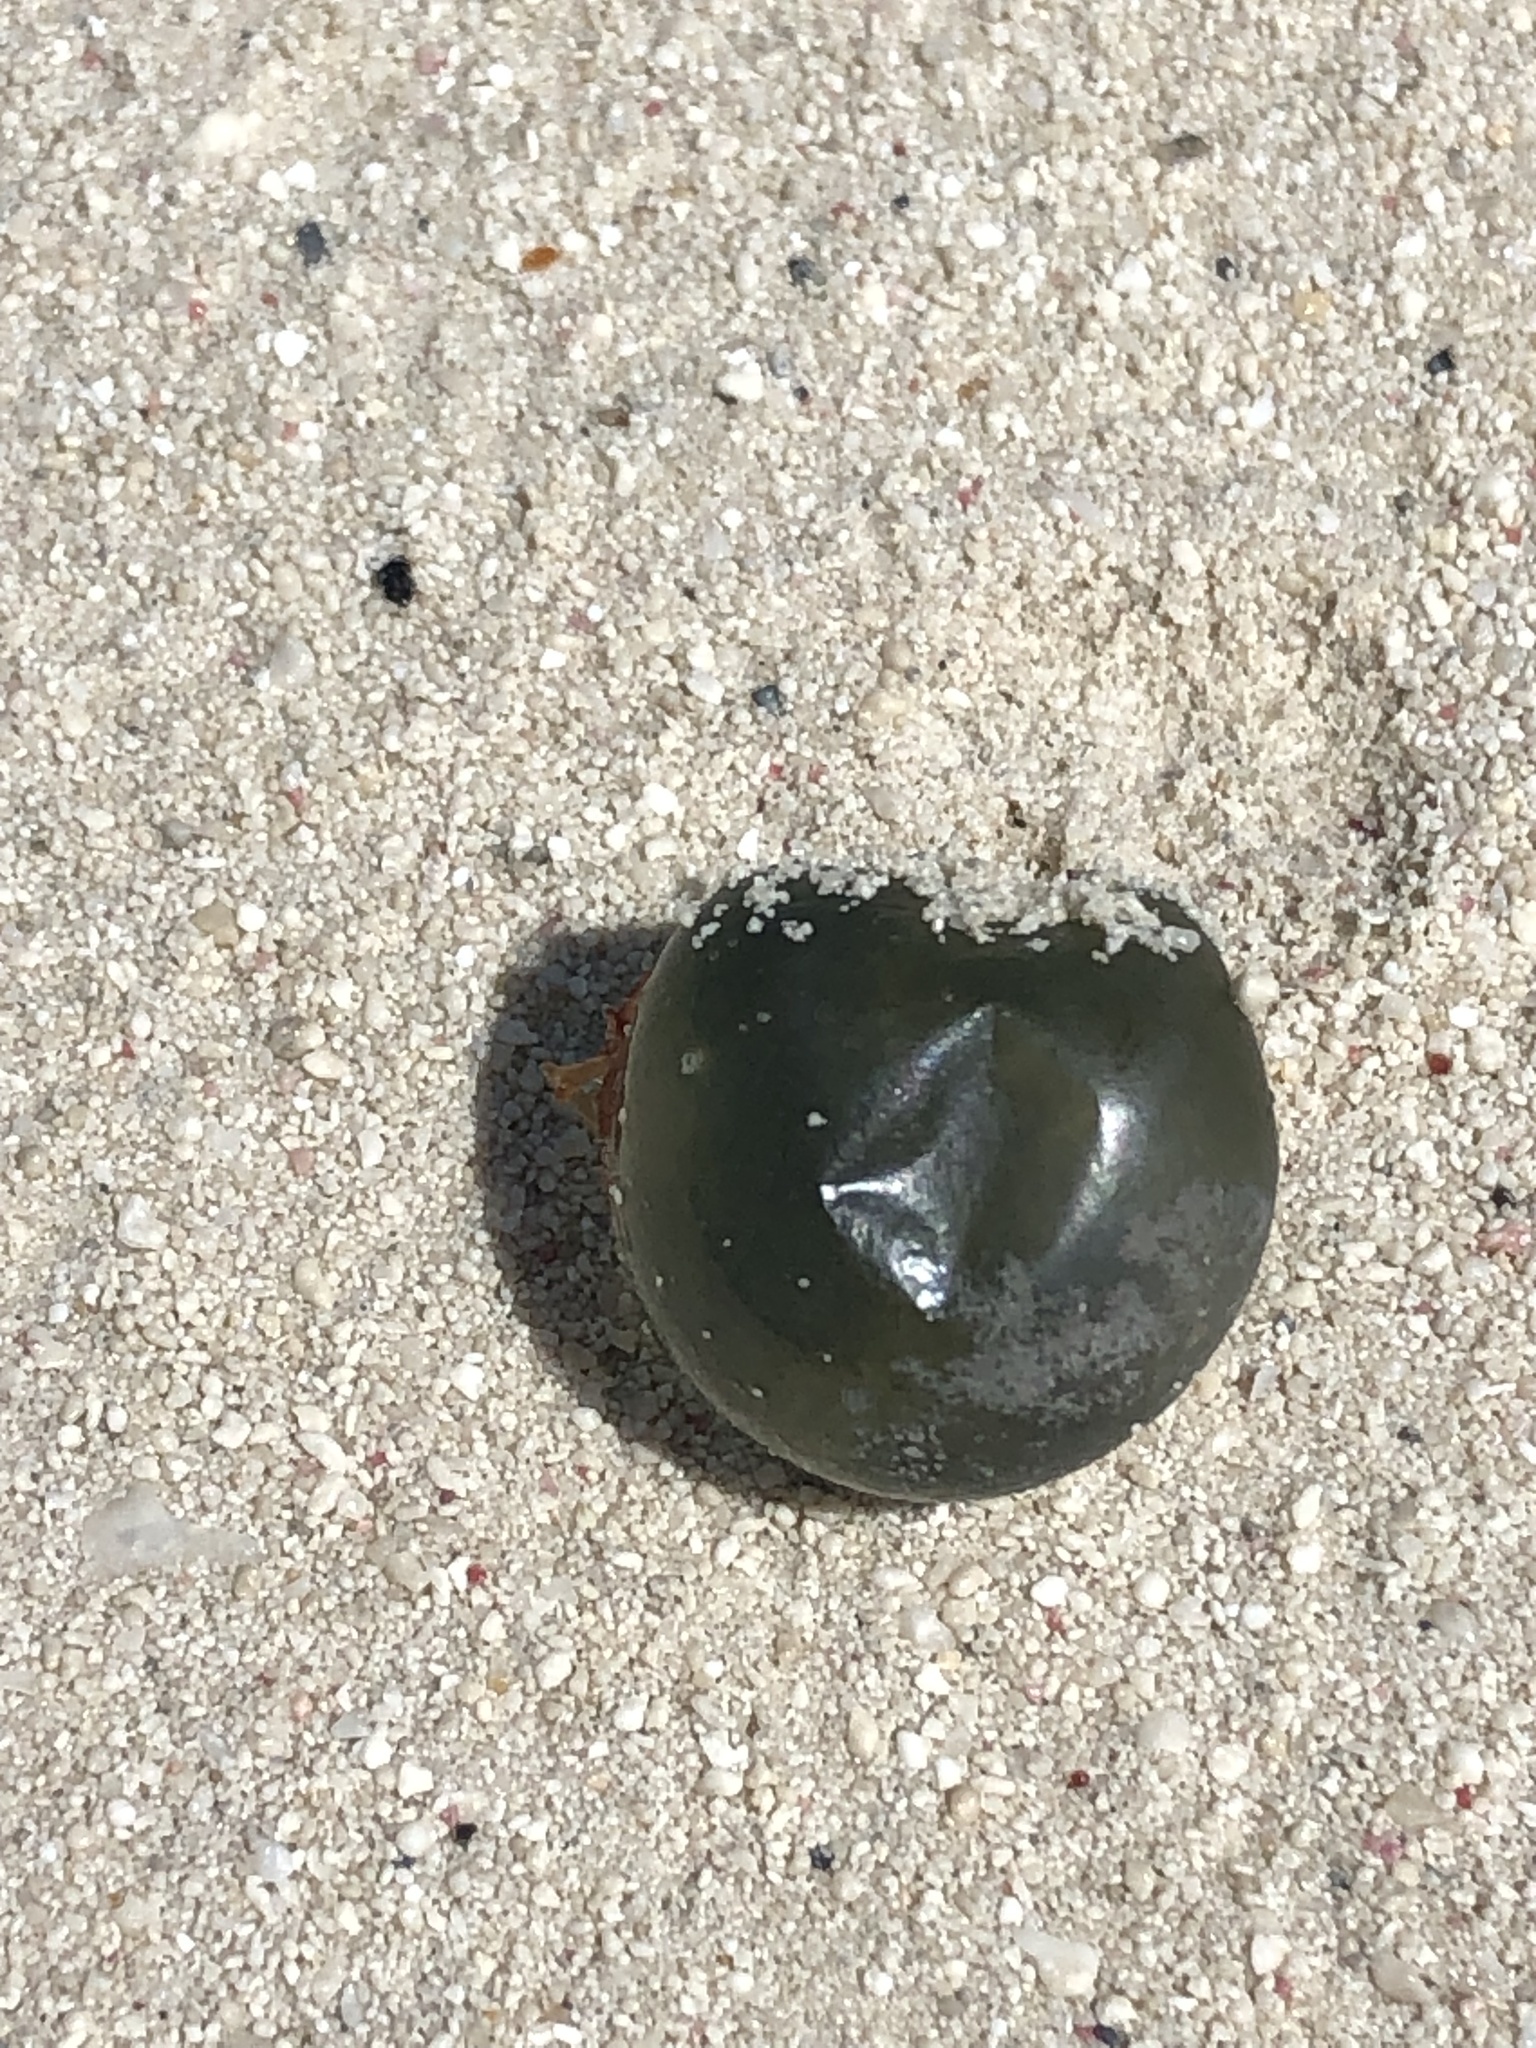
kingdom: Plantae
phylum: Chlorophyta
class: Ulvophyceae
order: Siphonocladales
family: Valoniaceae
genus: Valonia
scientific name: Valonia ventricosa
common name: Sea pearl
